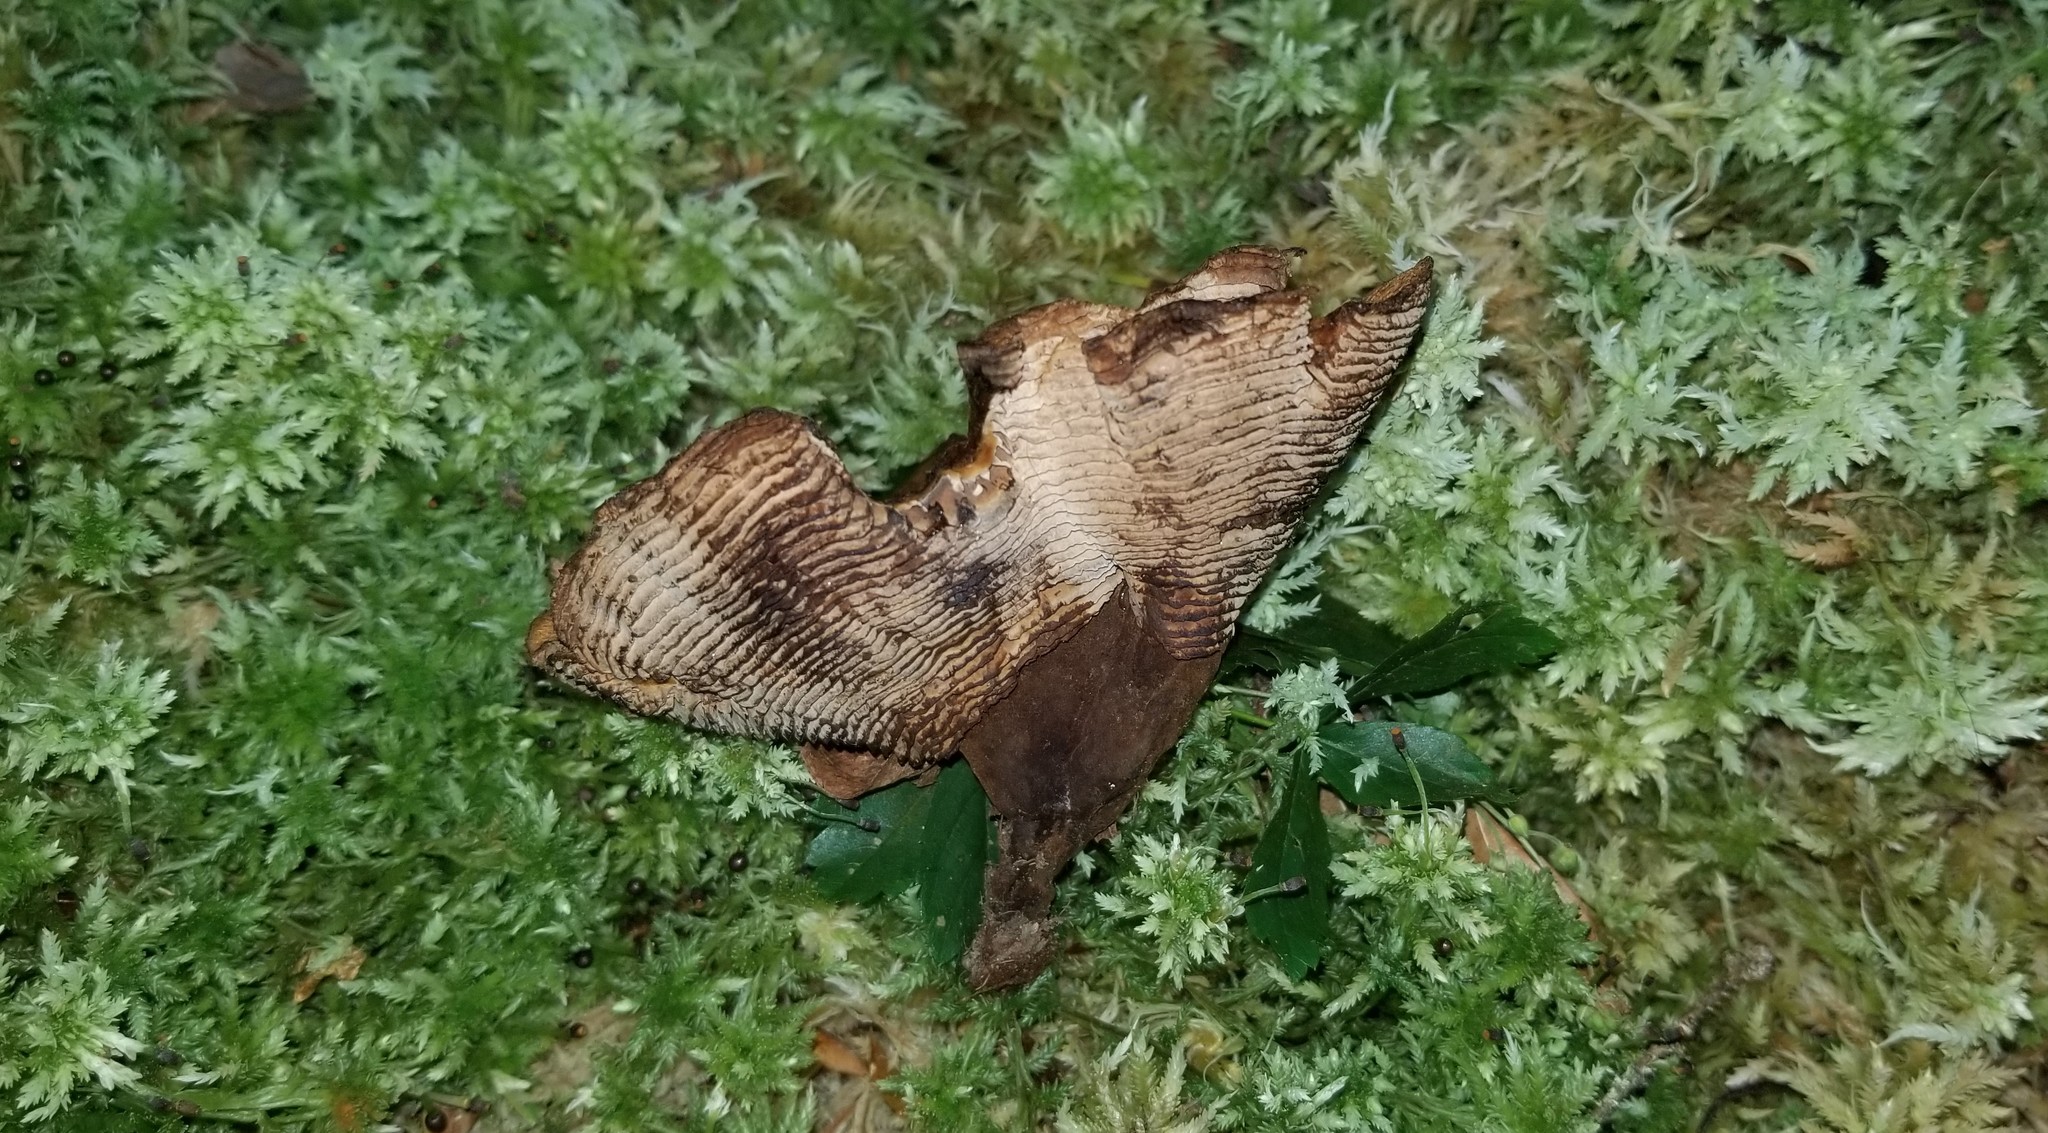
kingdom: Fungi
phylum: Basidiomycota
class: Agaricomycetes
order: Hymenochaetales
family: Hymenochaetaceae
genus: Coltricia
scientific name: Coltricia montagnei
